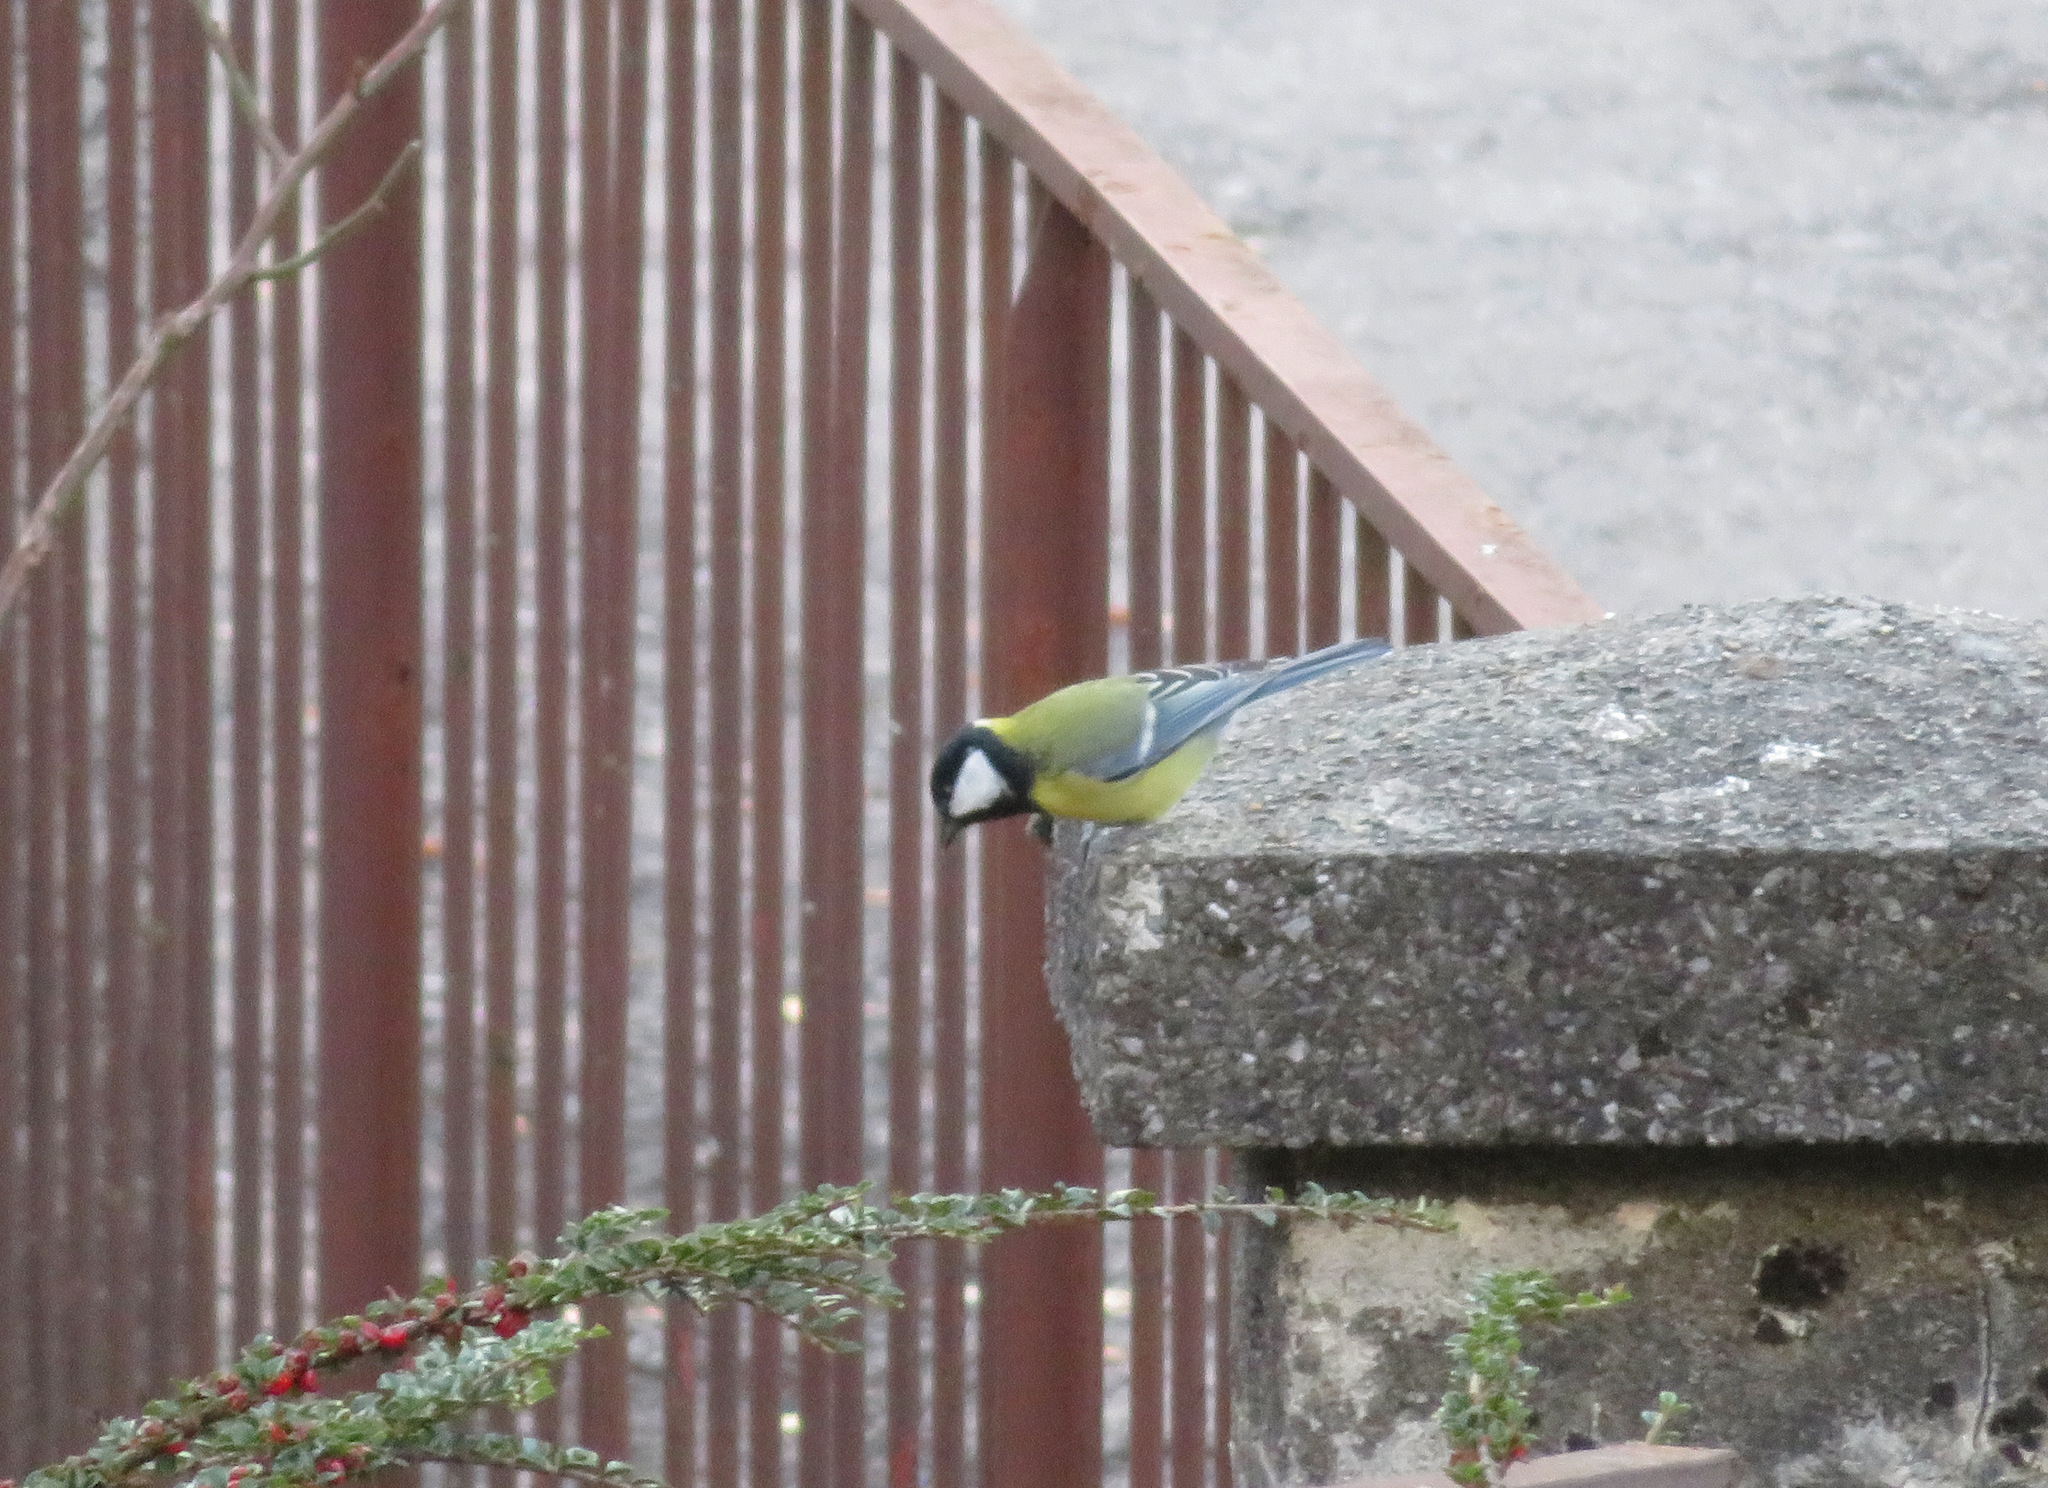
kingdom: Animalia
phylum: Chordata
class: Aves
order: Passeriformes
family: Paridae
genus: Parus
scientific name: Parus major
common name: Great tit
